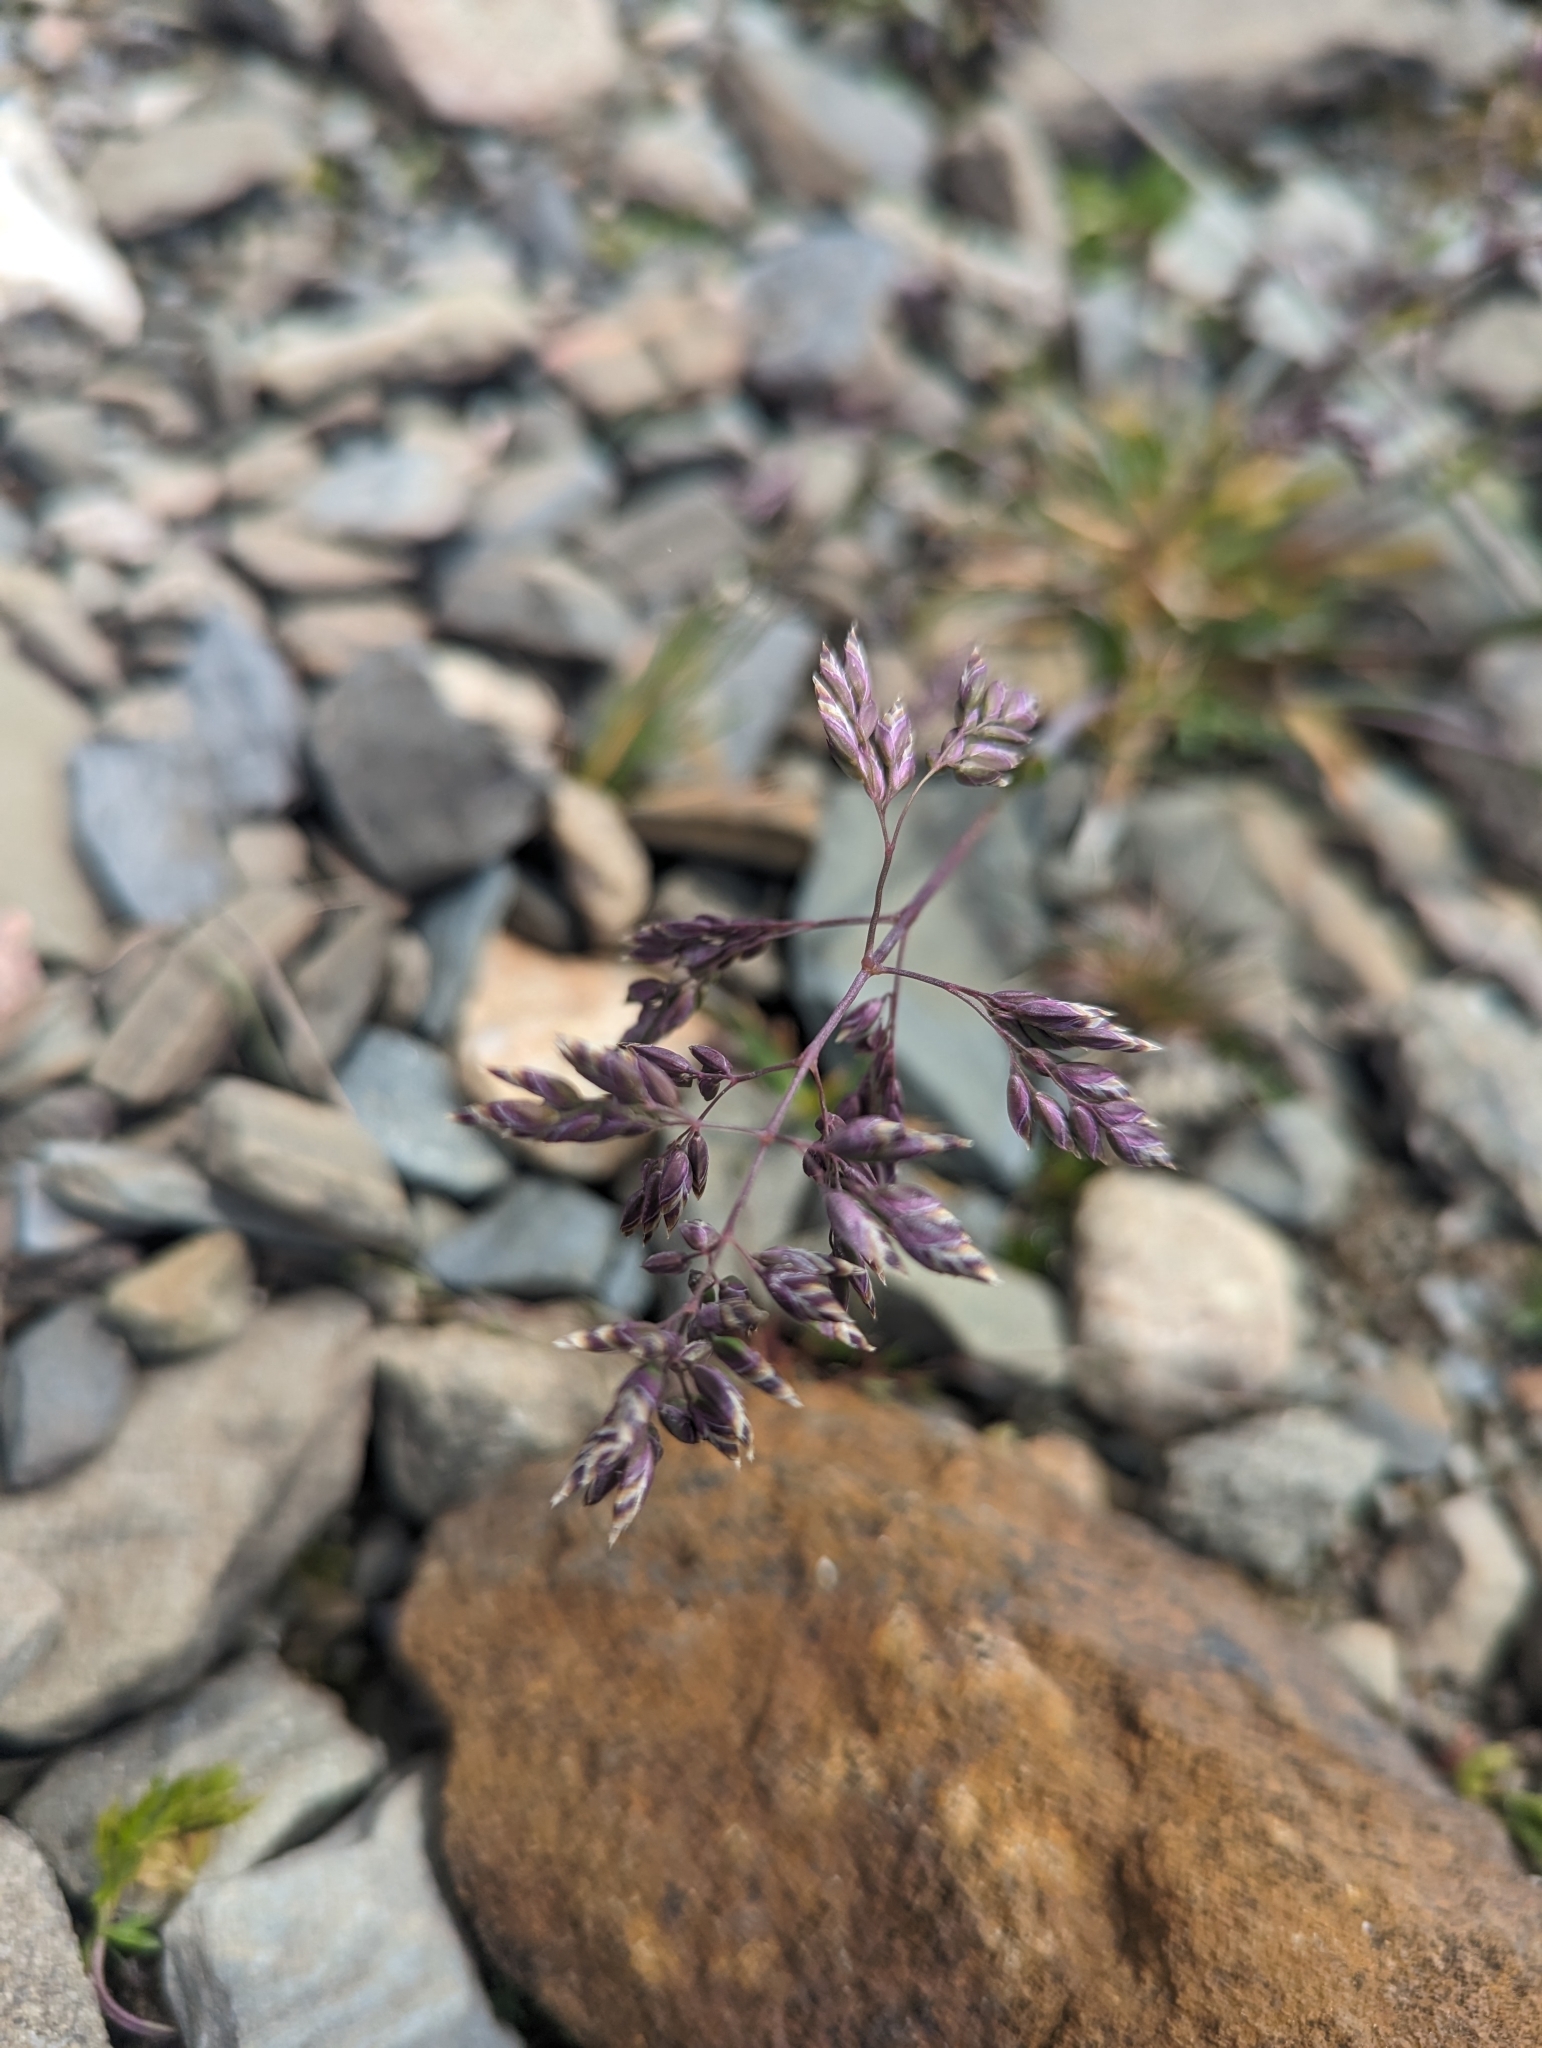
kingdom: Plantae
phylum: Tracheophyta
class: Liliopsida
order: Poales
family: Poaceae
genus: Poa
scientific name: Poa alpina
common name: Alpine bluegrass
